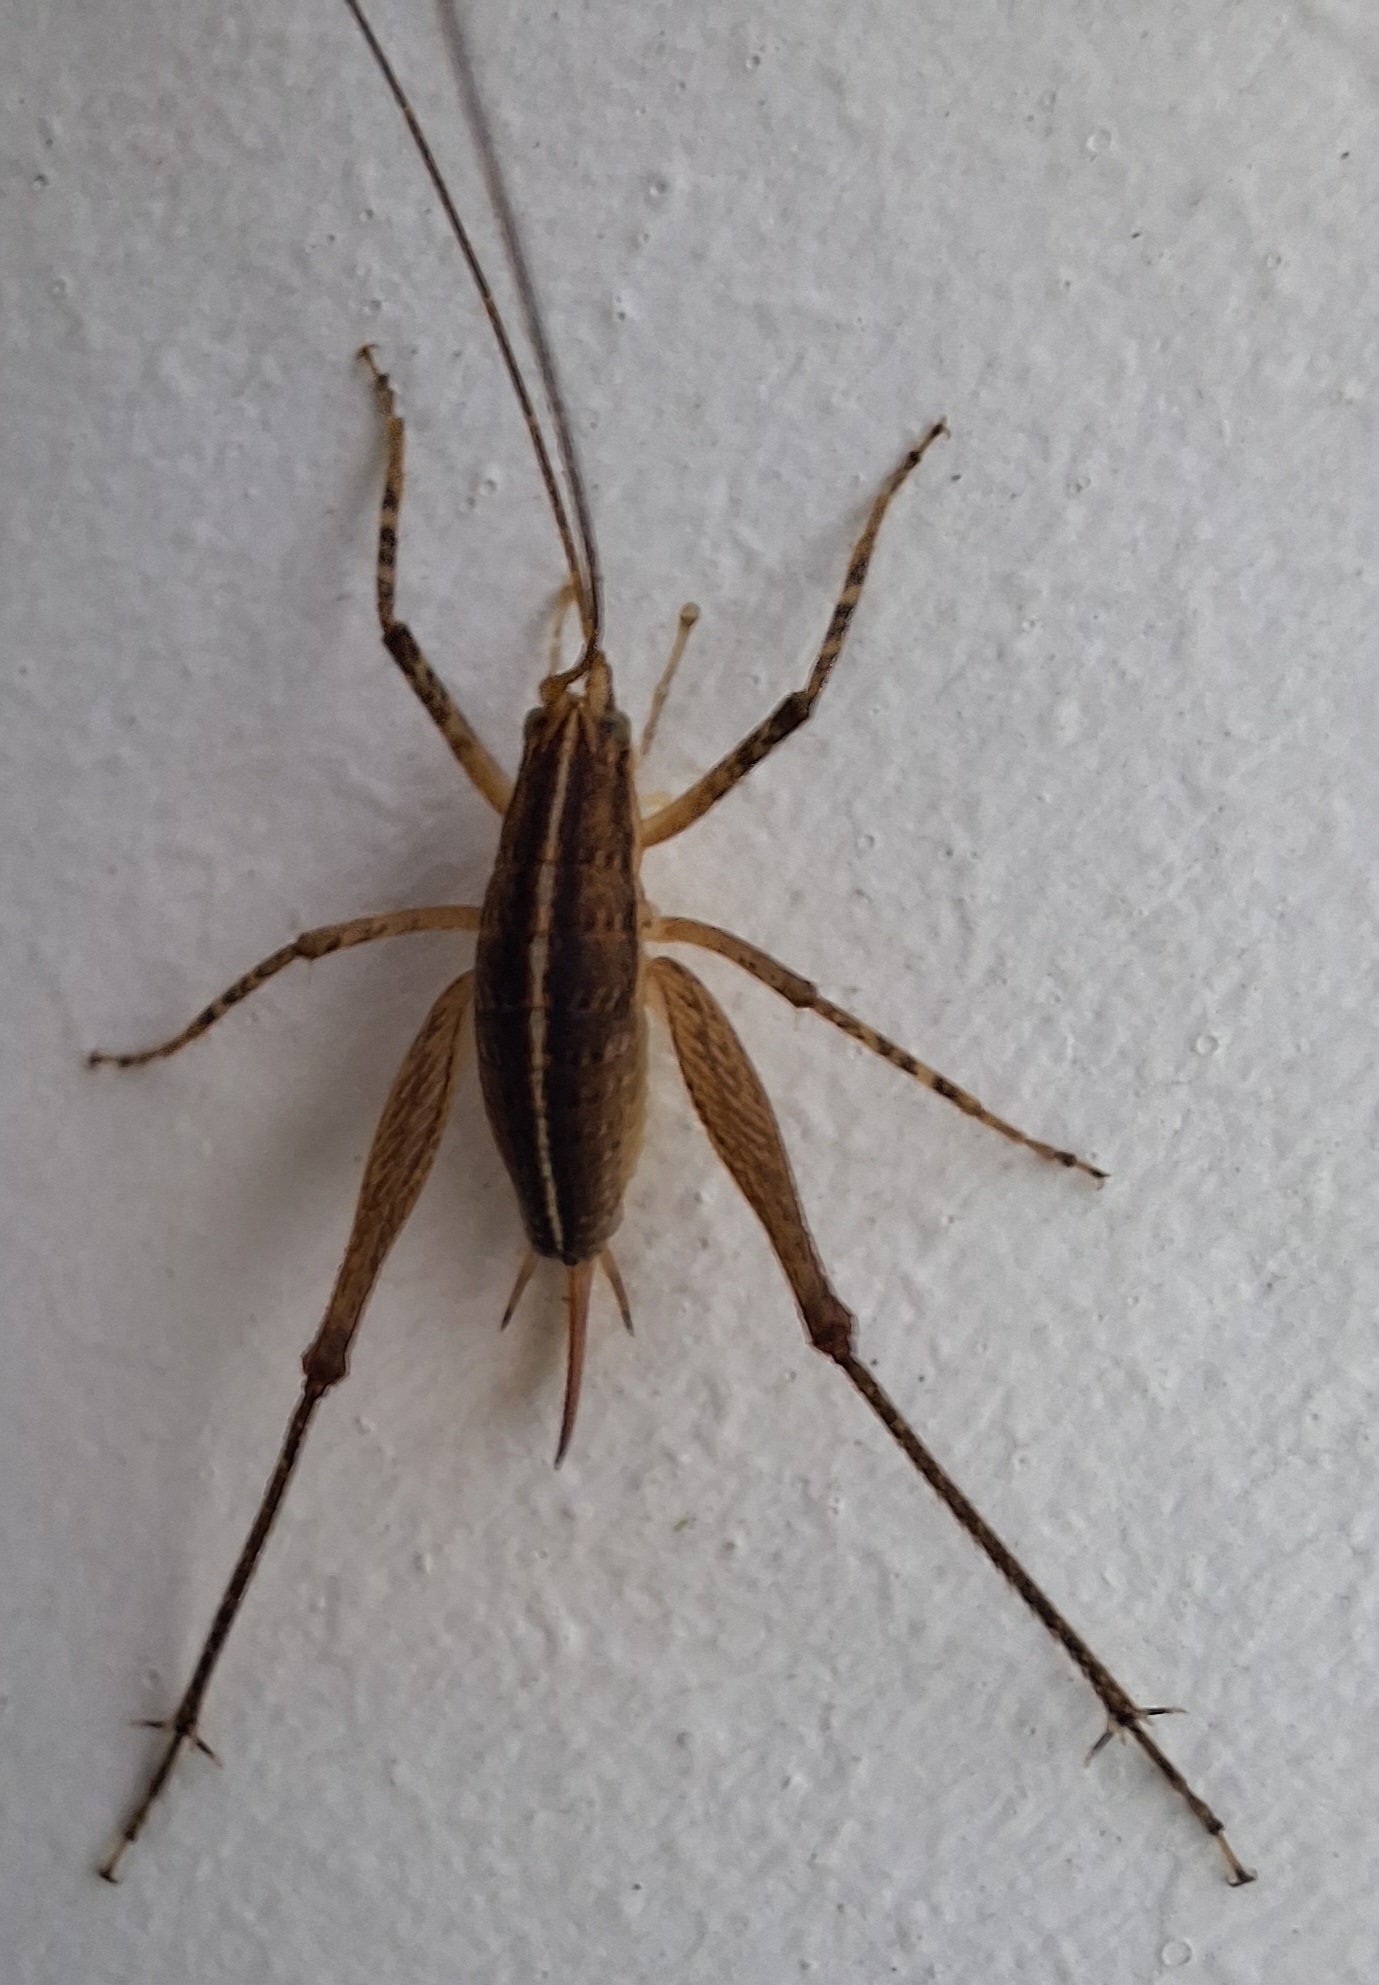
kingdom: Animalia
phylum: Arthropoda
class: Insecta
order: Orthoptera
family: Rhaphidophoridae
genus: Talitropsis
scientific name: Talitropsis poduroides
